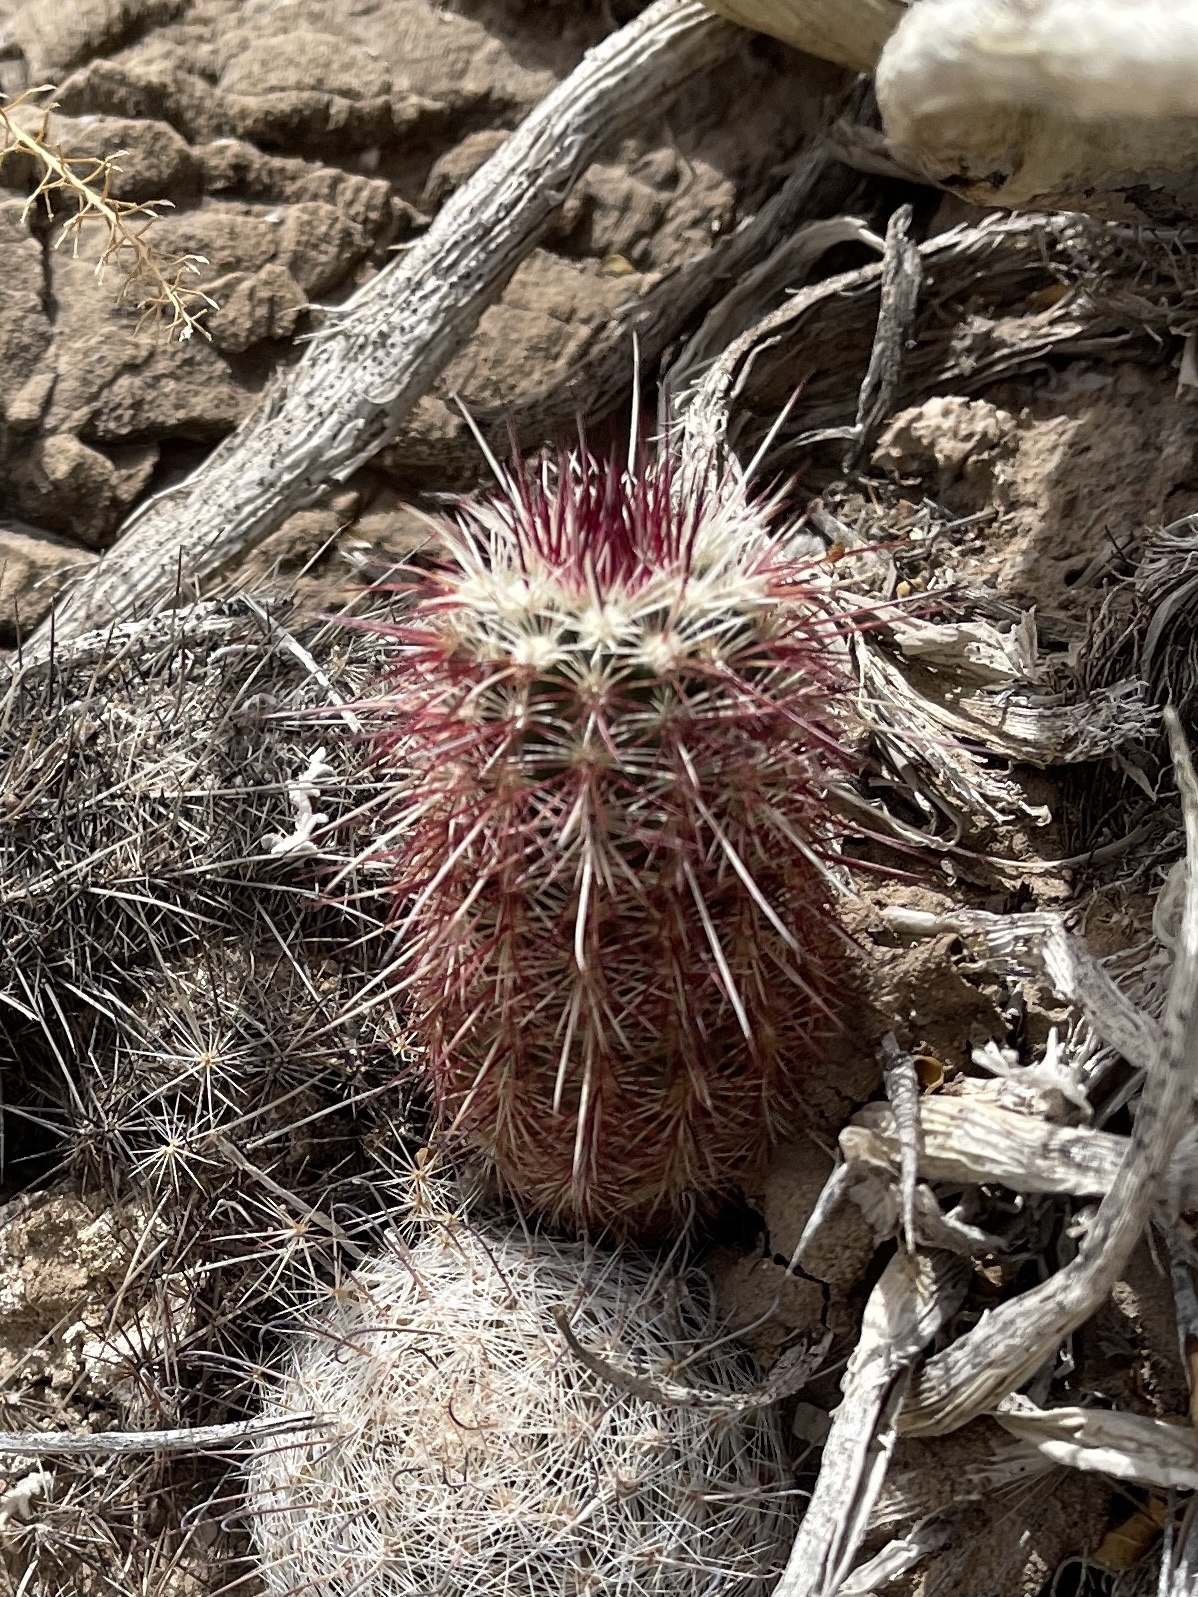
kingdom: Plantae
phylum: Tracheophyta
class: Magnoliopsida
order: Caryophyllales
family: Cactaceae
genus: Echinocereus
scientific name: Echinocereus viridiflorus
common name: Nylon hedgehog cactus
